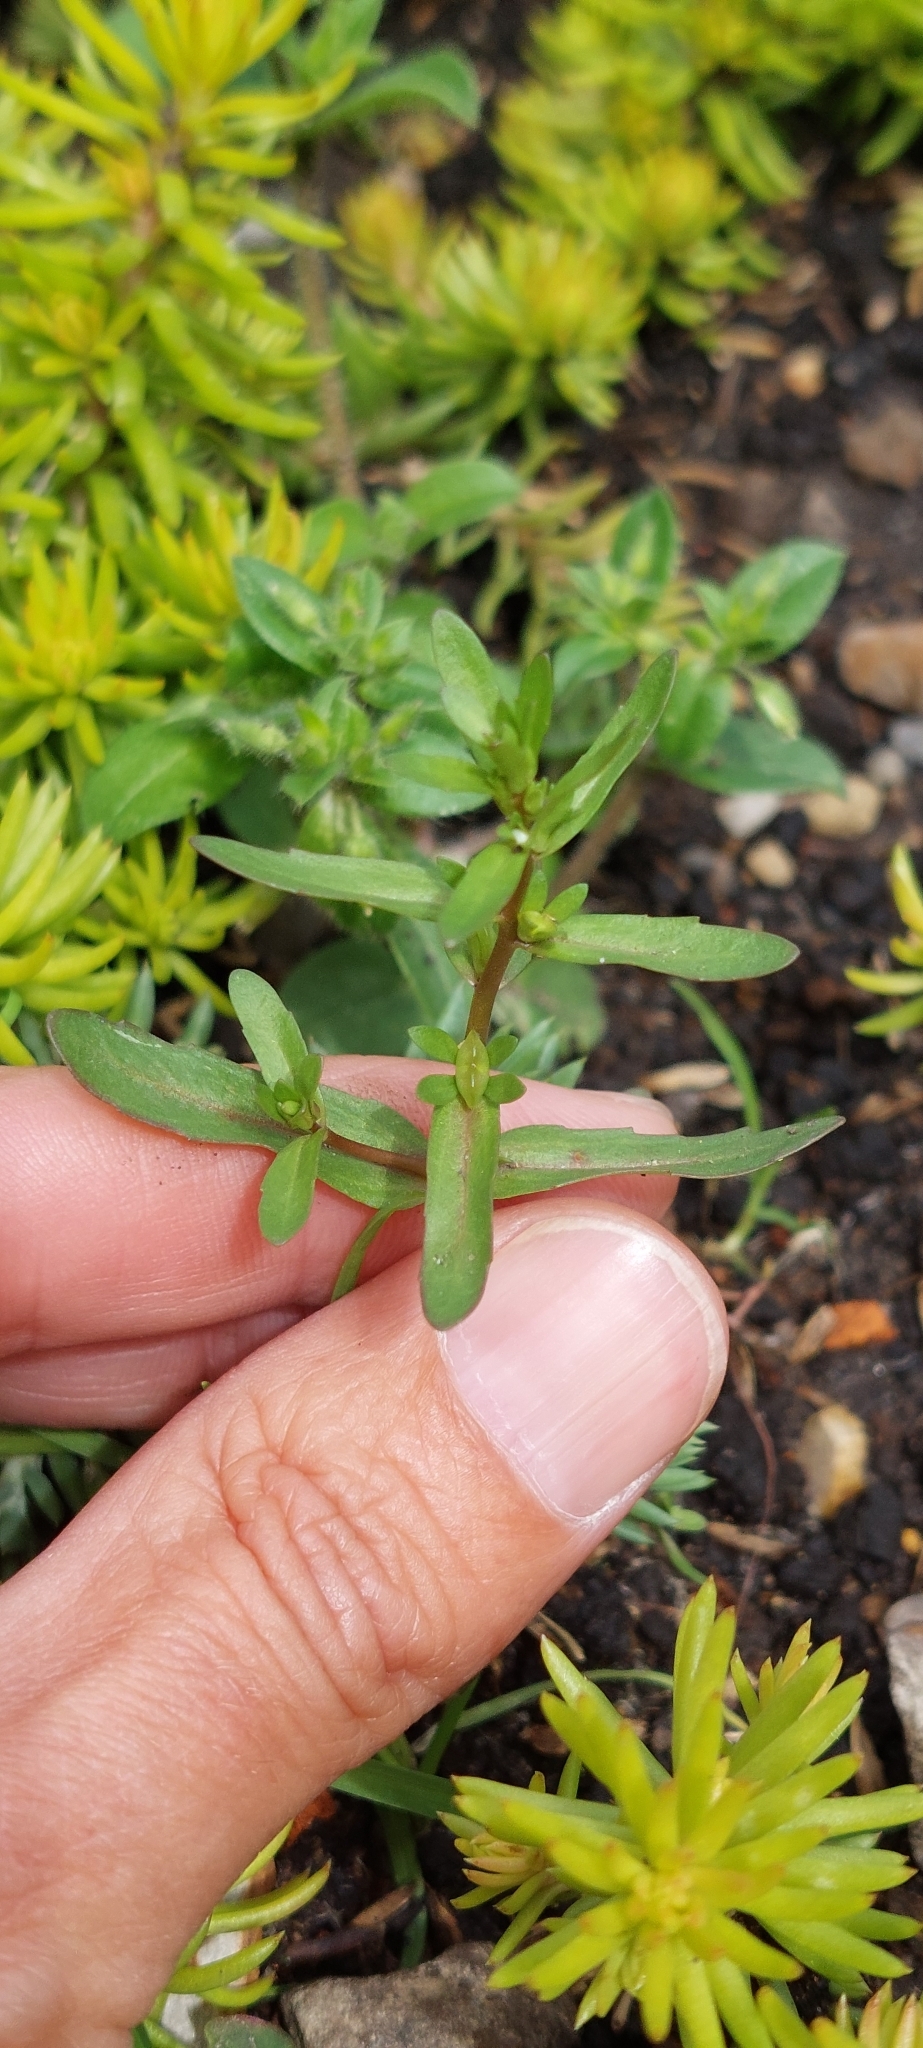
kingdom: Plantae
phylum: Tracheophyta
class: Magnoliopsida
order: Lamiales
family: Plantaginaceae
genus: Veronica
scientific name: Veronica peregrina
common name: Neckweed
